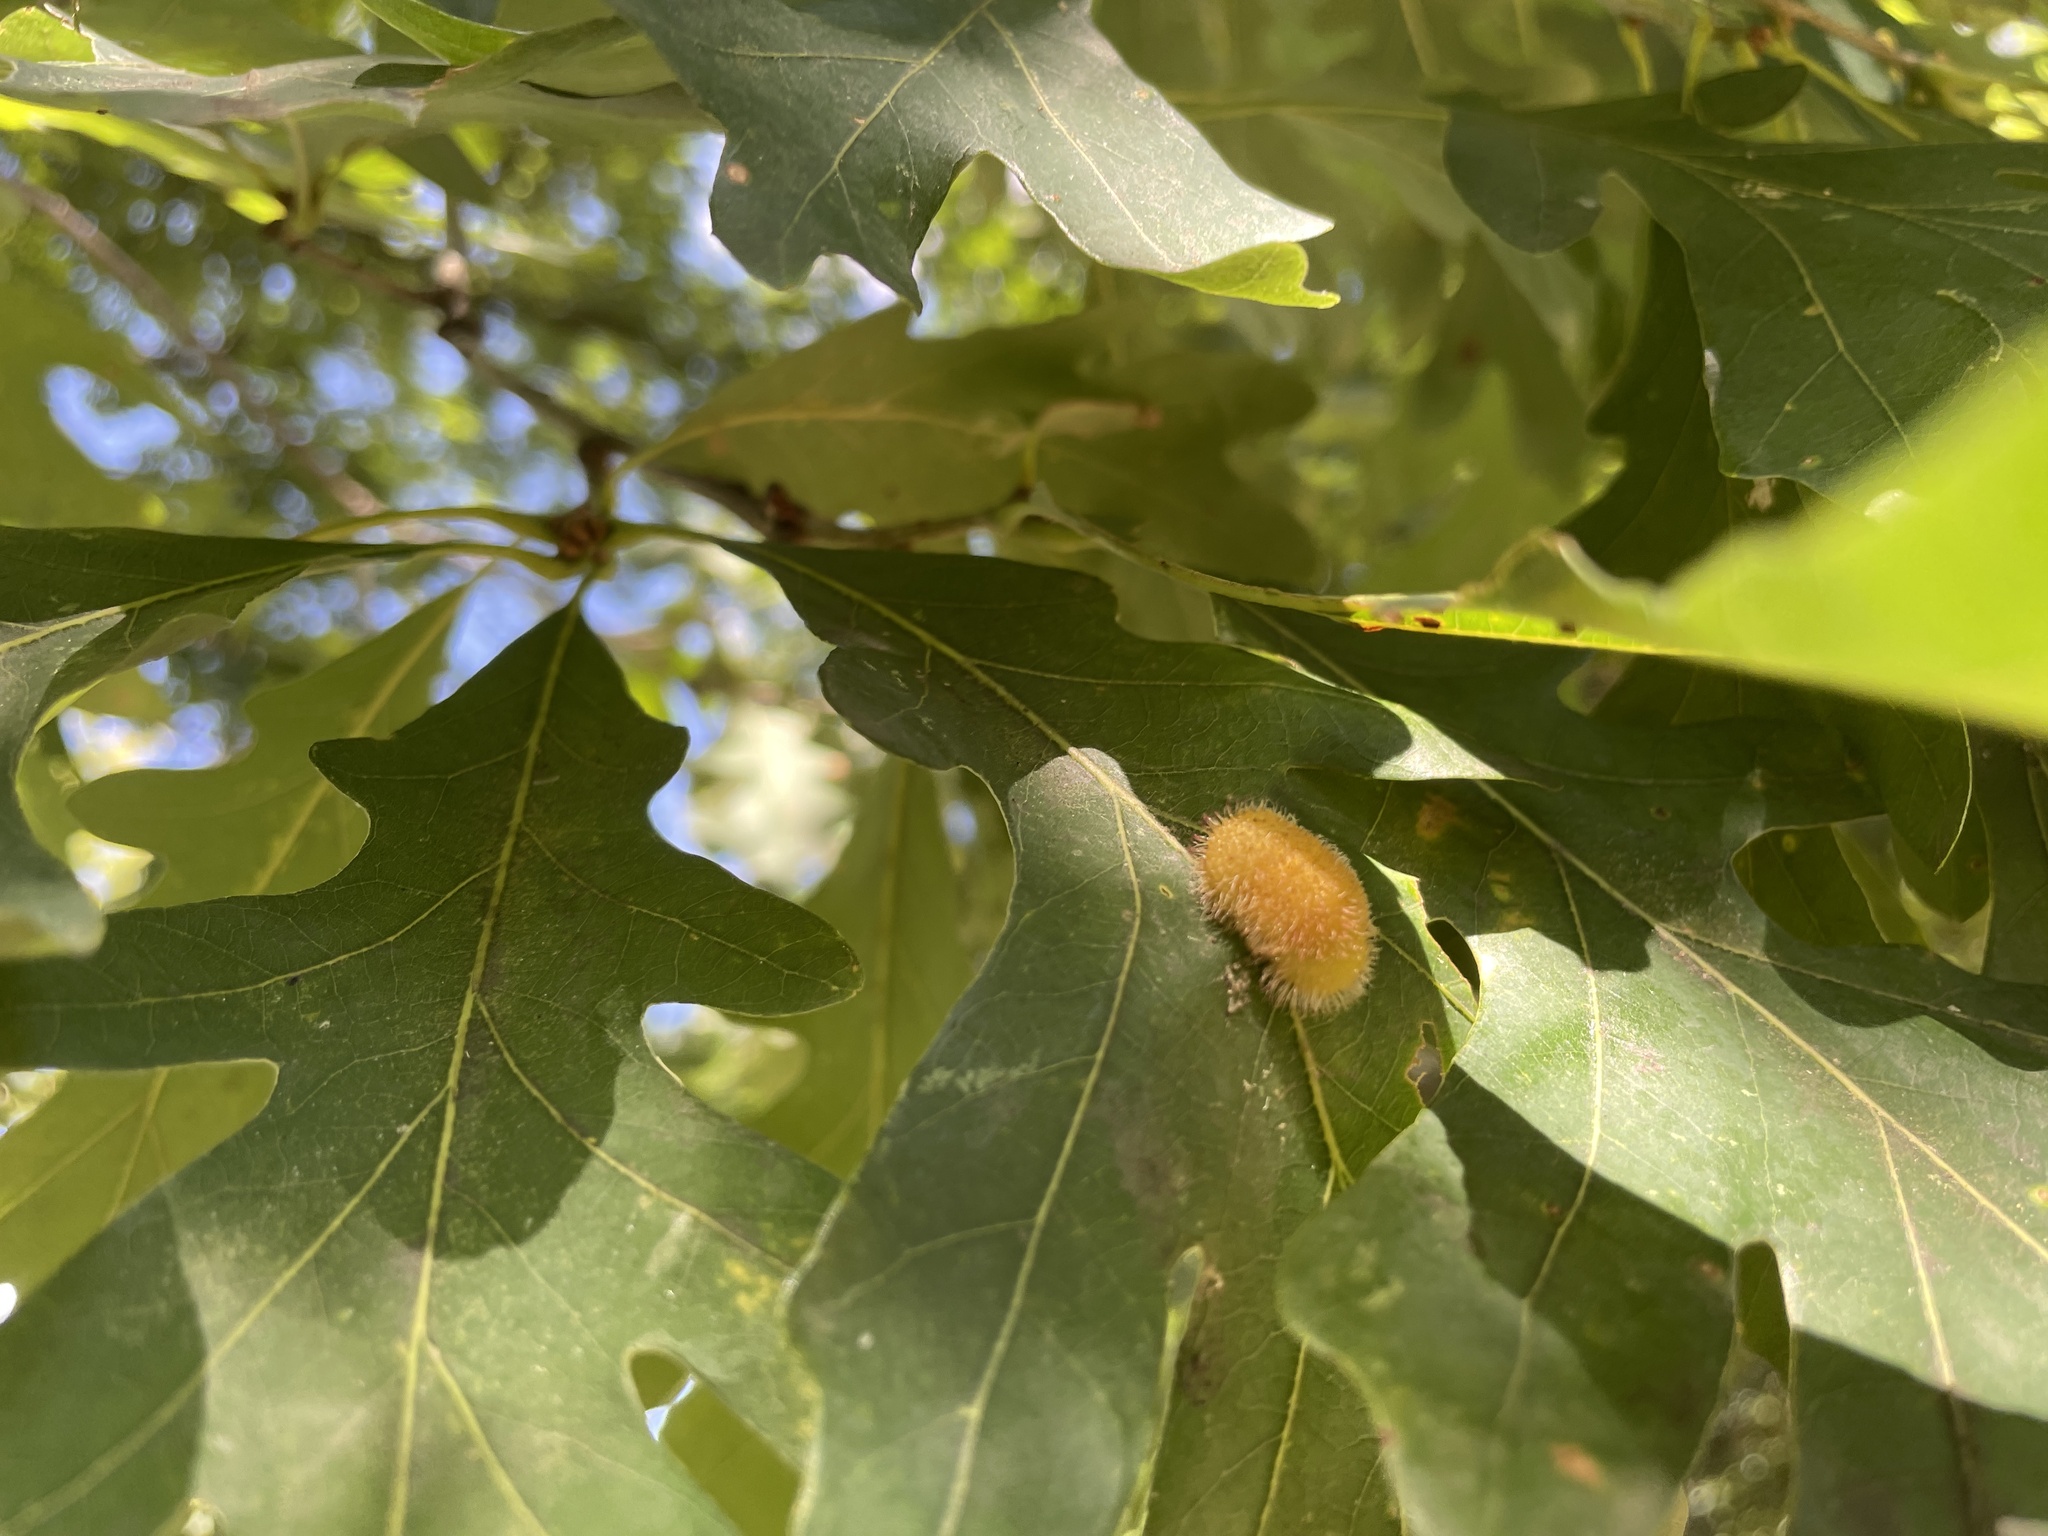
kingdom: Animalia
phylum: Arthropoda
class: Insecta
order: Hymenoptera
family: Cynipidae
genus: Acraspis
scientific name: Acraspis erinacei
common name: Hedgehog gall wasp
